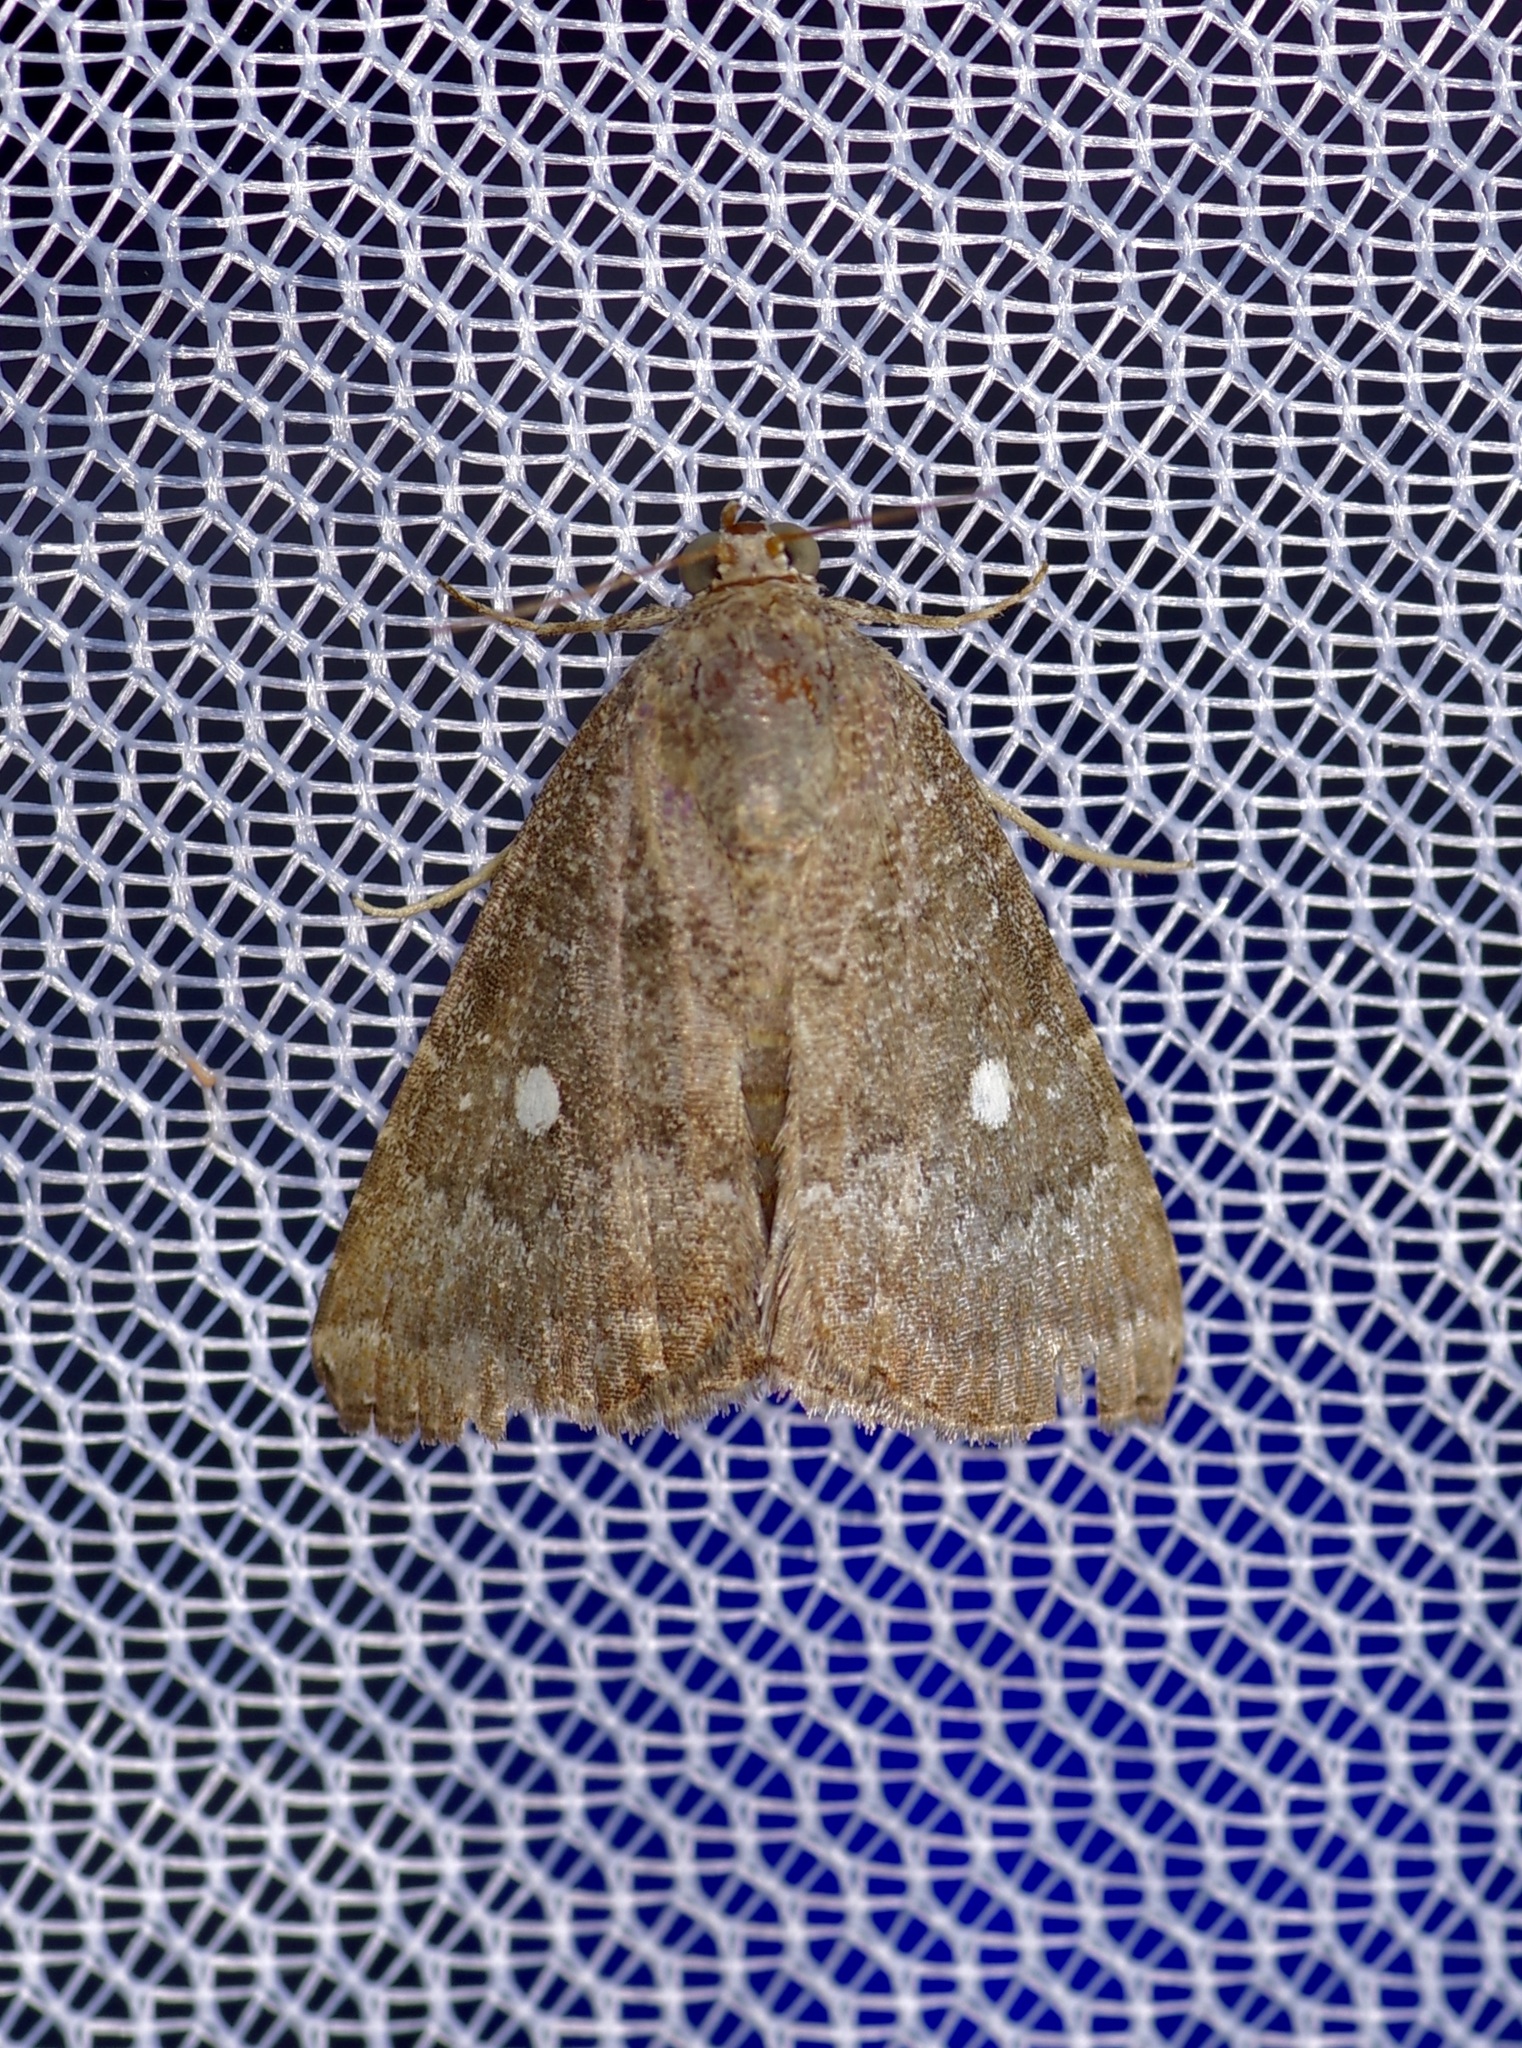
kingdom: Animalia
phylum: Arthropoda
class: Insecta
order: Lepidoptera
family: Noctuidae
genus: Amyna
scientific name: Amyna stricta
